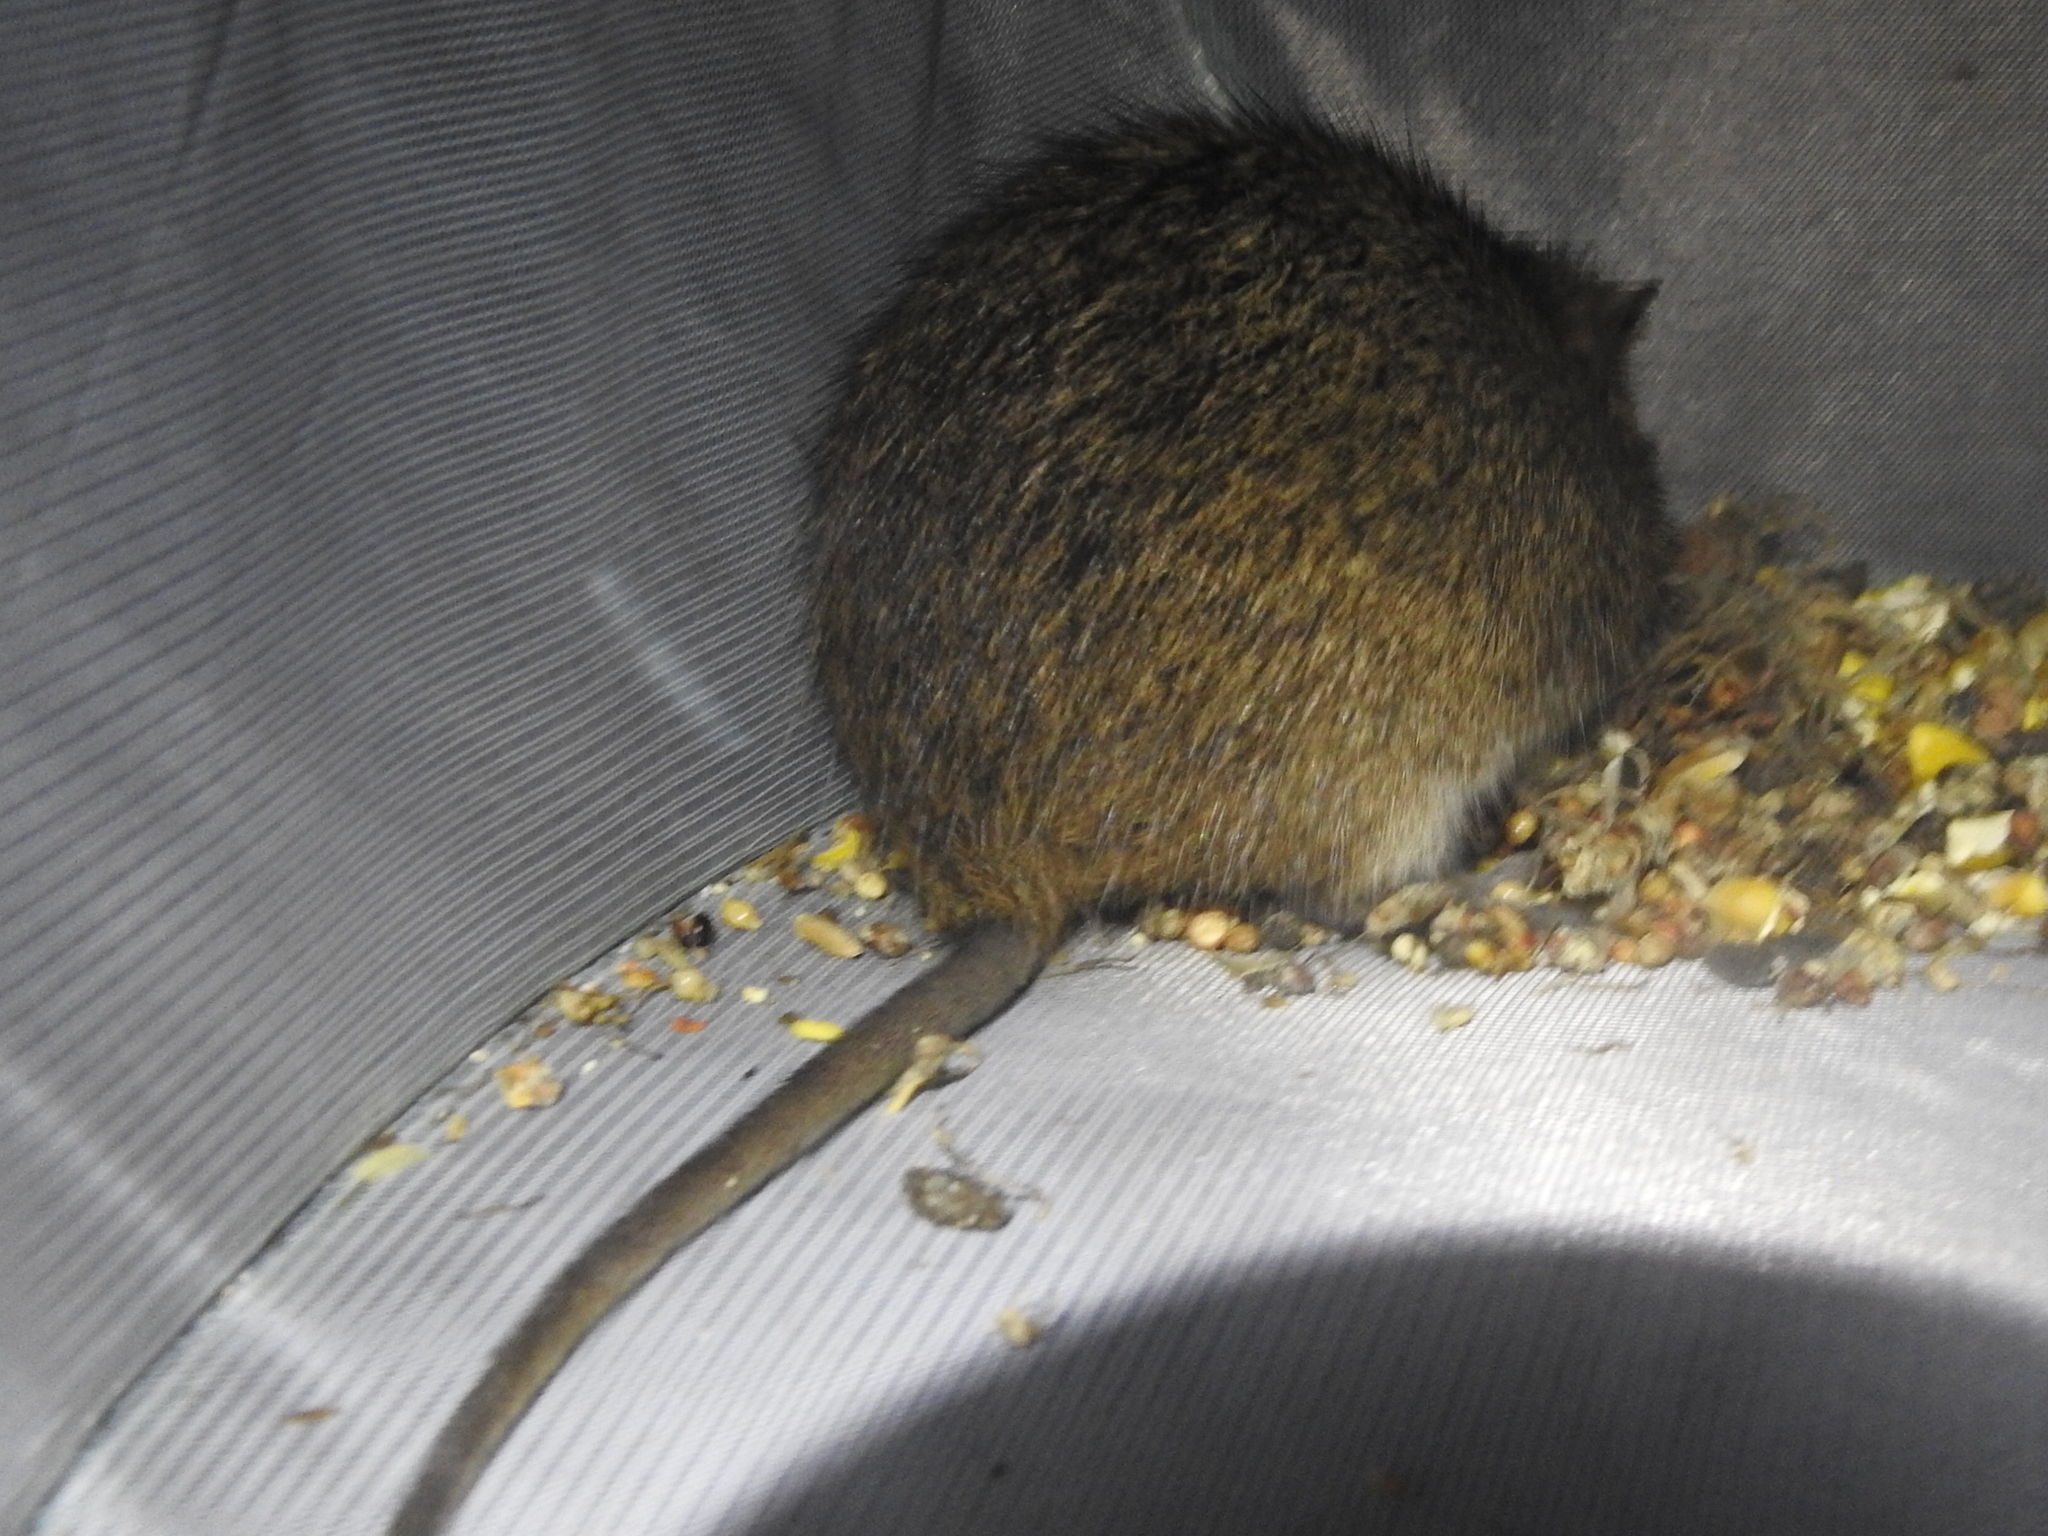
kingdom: Animalia
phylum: Chordata
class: Mammalia
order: Rodentia
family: Cricetidae
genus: Sigmodon
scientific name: Sigmodon hispidus
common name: Hispid cotton rat
